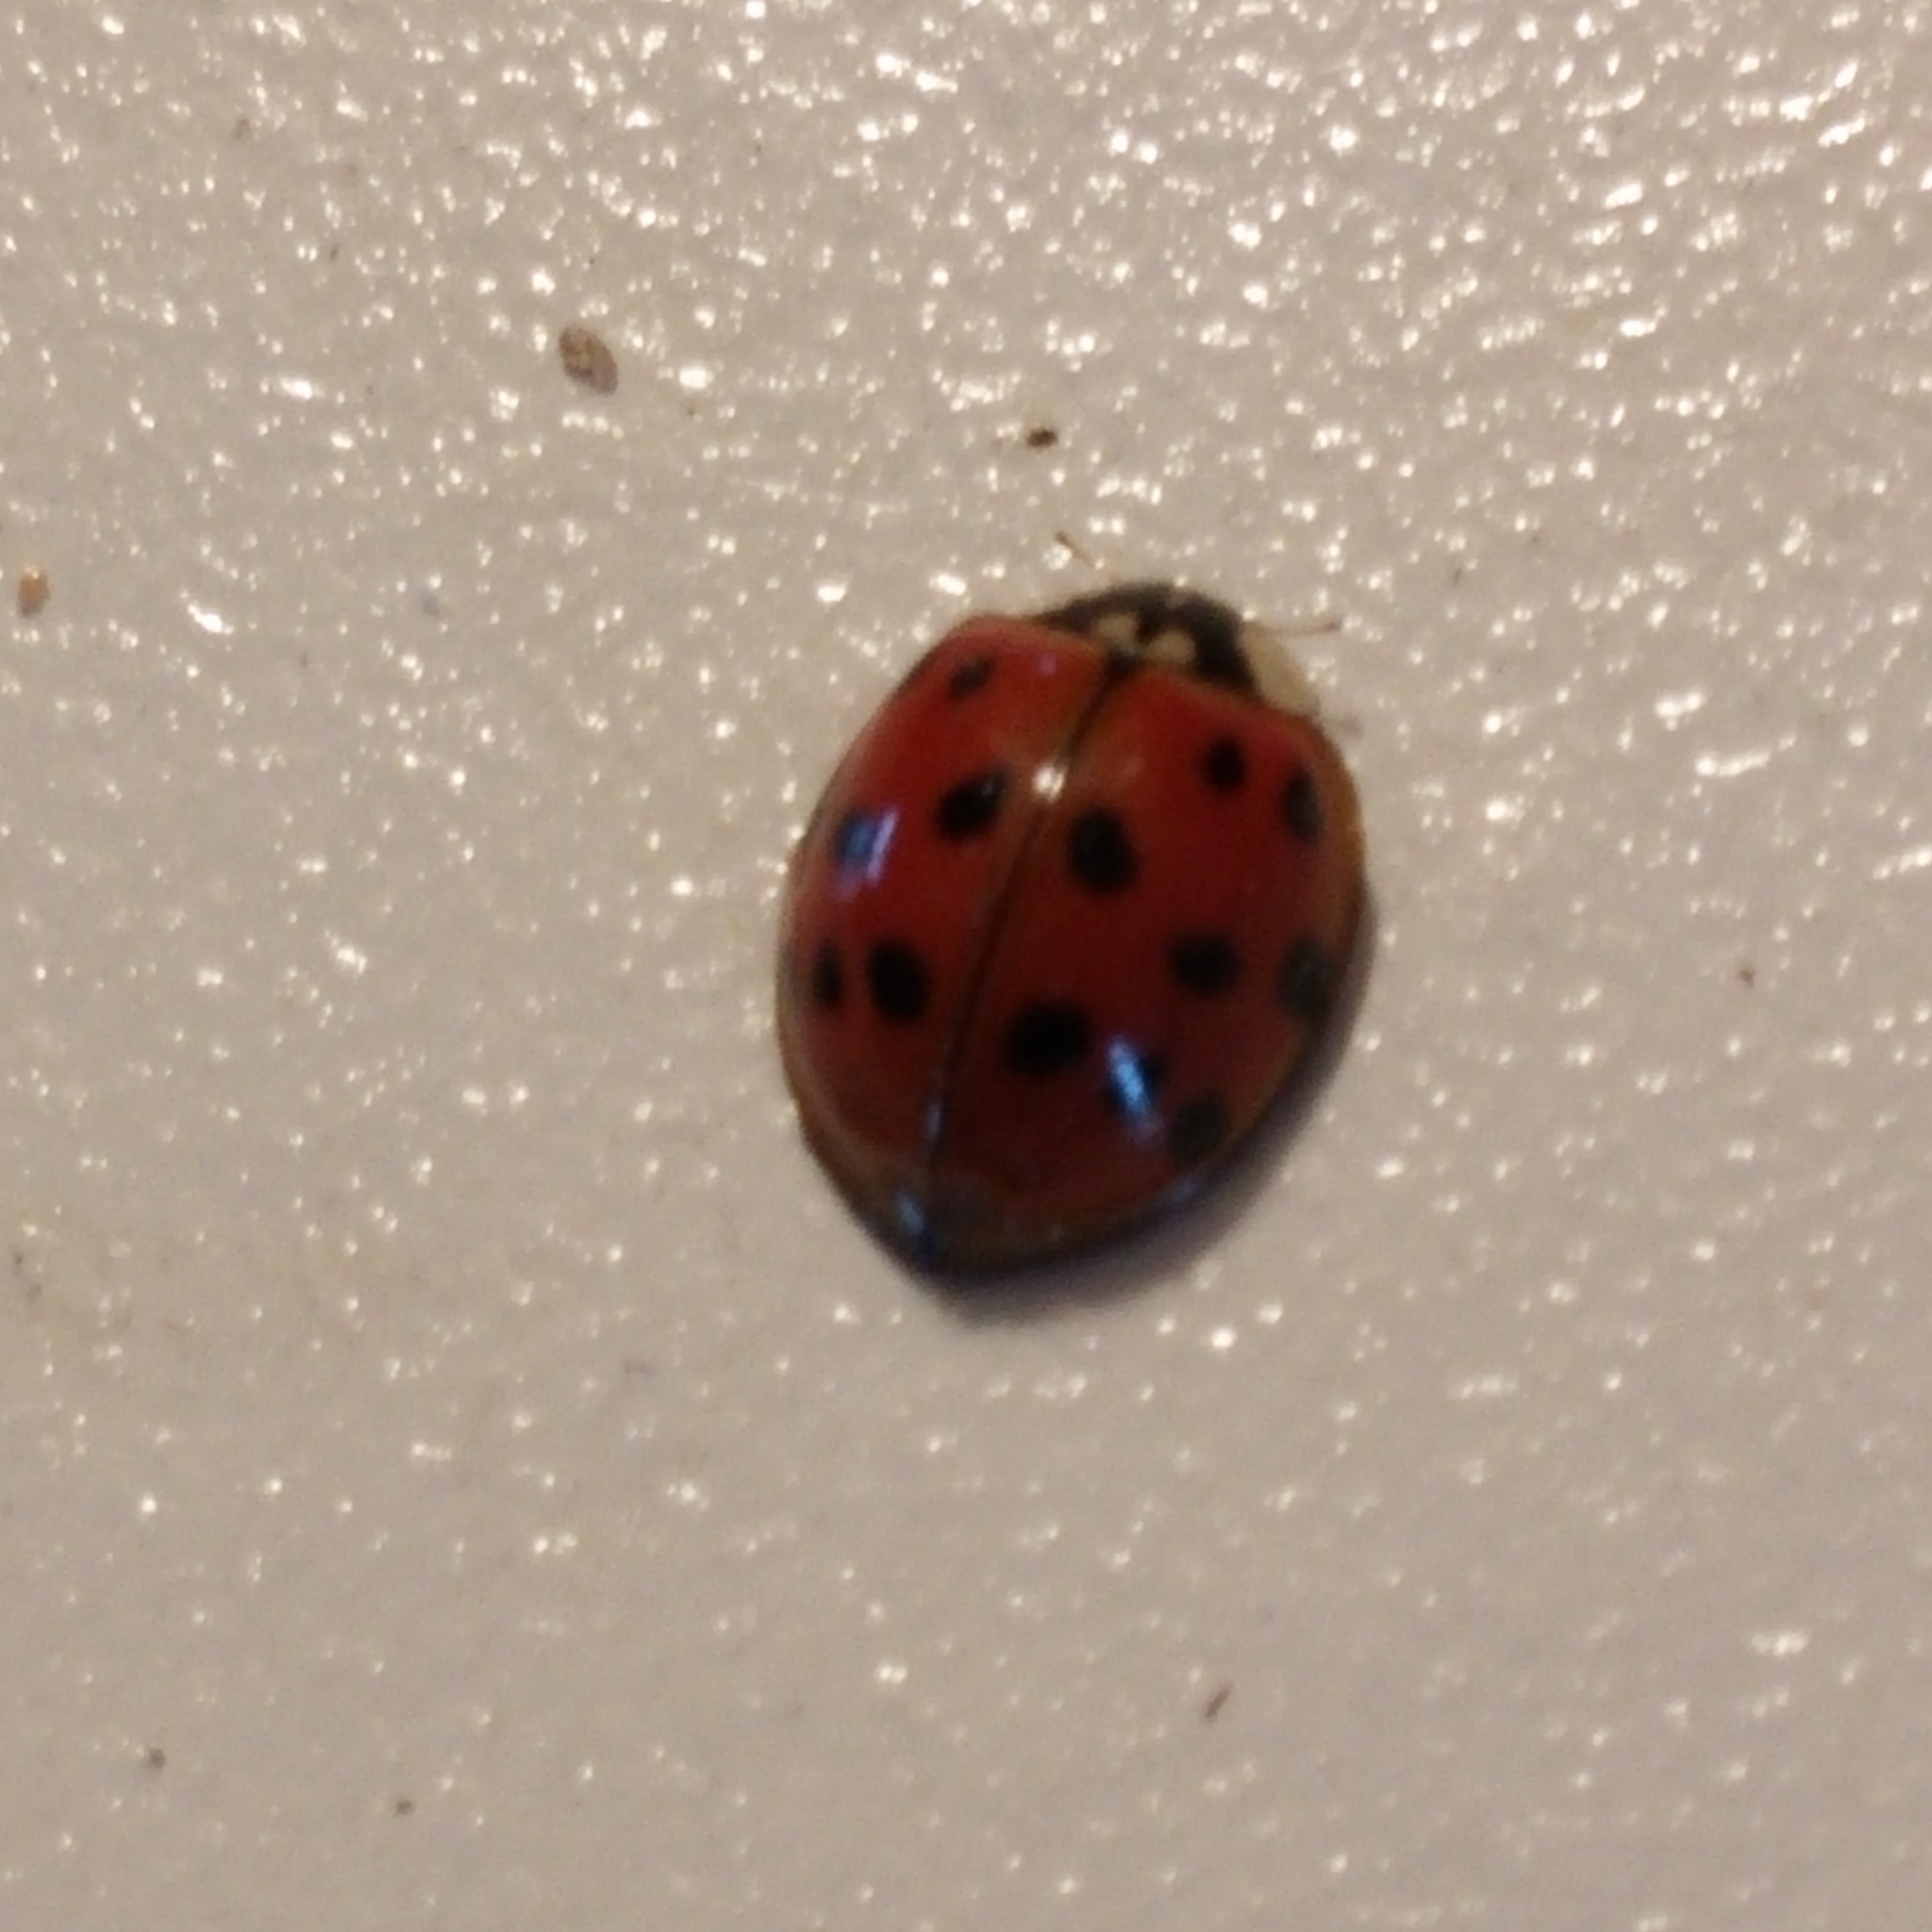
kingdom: Animalia
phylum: Arthropoda
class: Insecta
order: Coleoptera
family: Coccinellidae
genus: Harmonia
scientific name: Harmonia axyridis
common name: Harlequin ladybird
